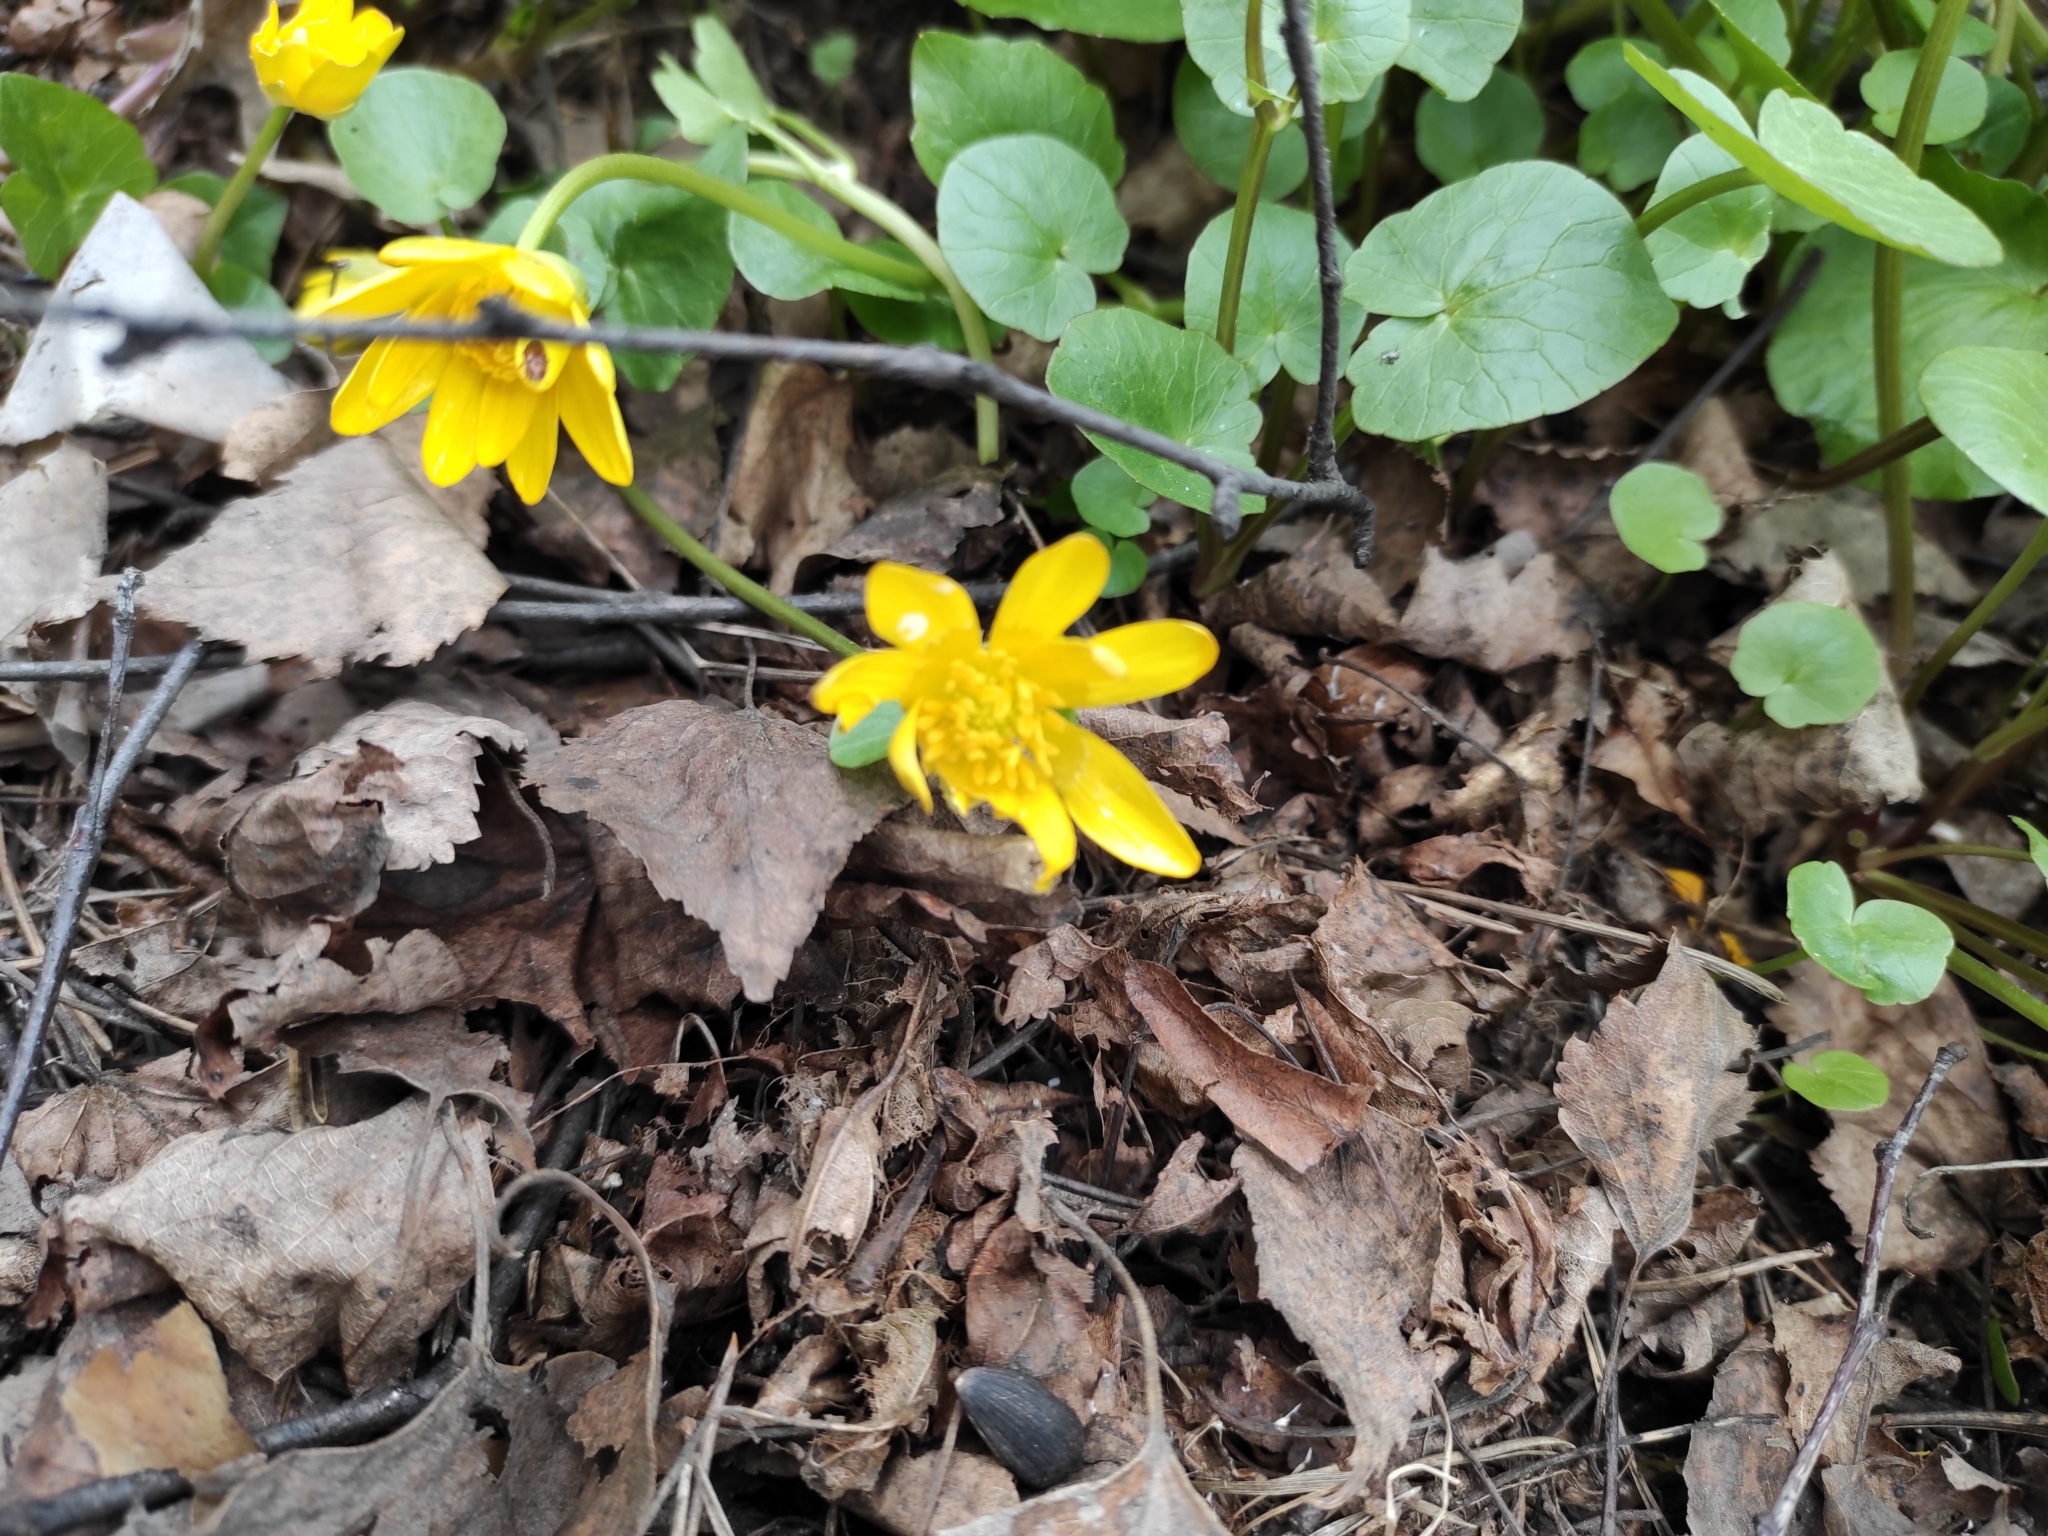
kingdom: Plantae
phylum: Tracheophyta
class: Magnoliopsida
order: Ranunculales
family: Ranunculaceae
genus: Ficaria
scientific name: Ficaria verna
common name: Lesser celandine
